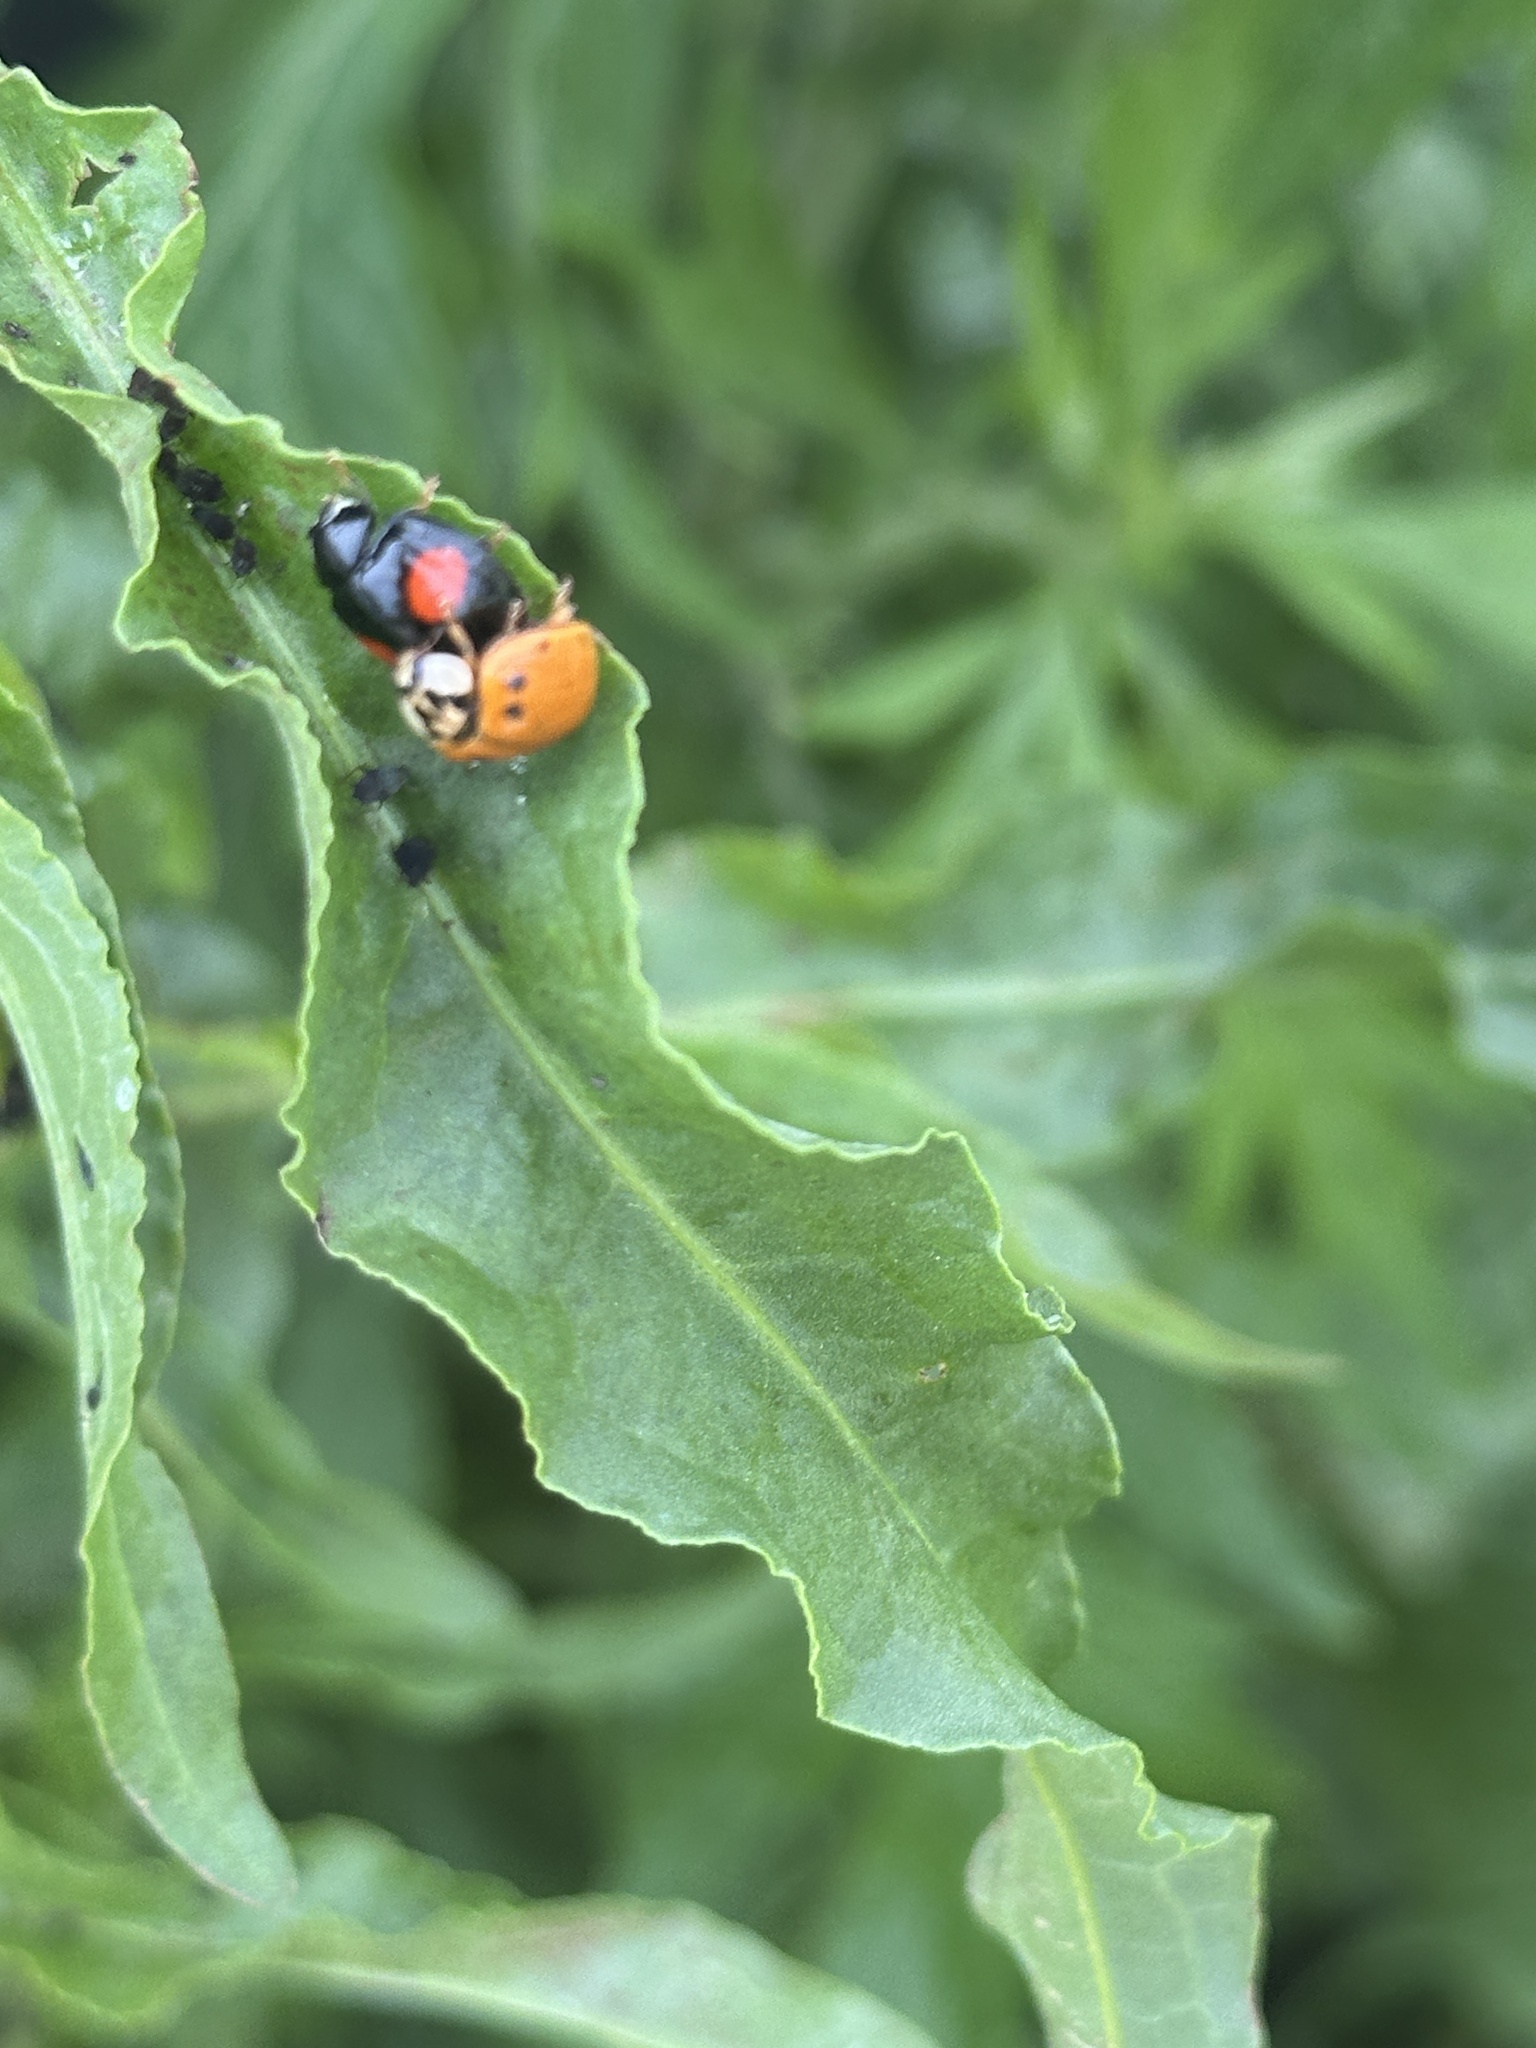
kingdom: Animalia
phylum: Arthropoda
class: Insecta
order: Coleoptera
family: Coccinellidae
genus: Harmonia
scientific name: Harmonia axyridis
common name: Harlequin ladybird
